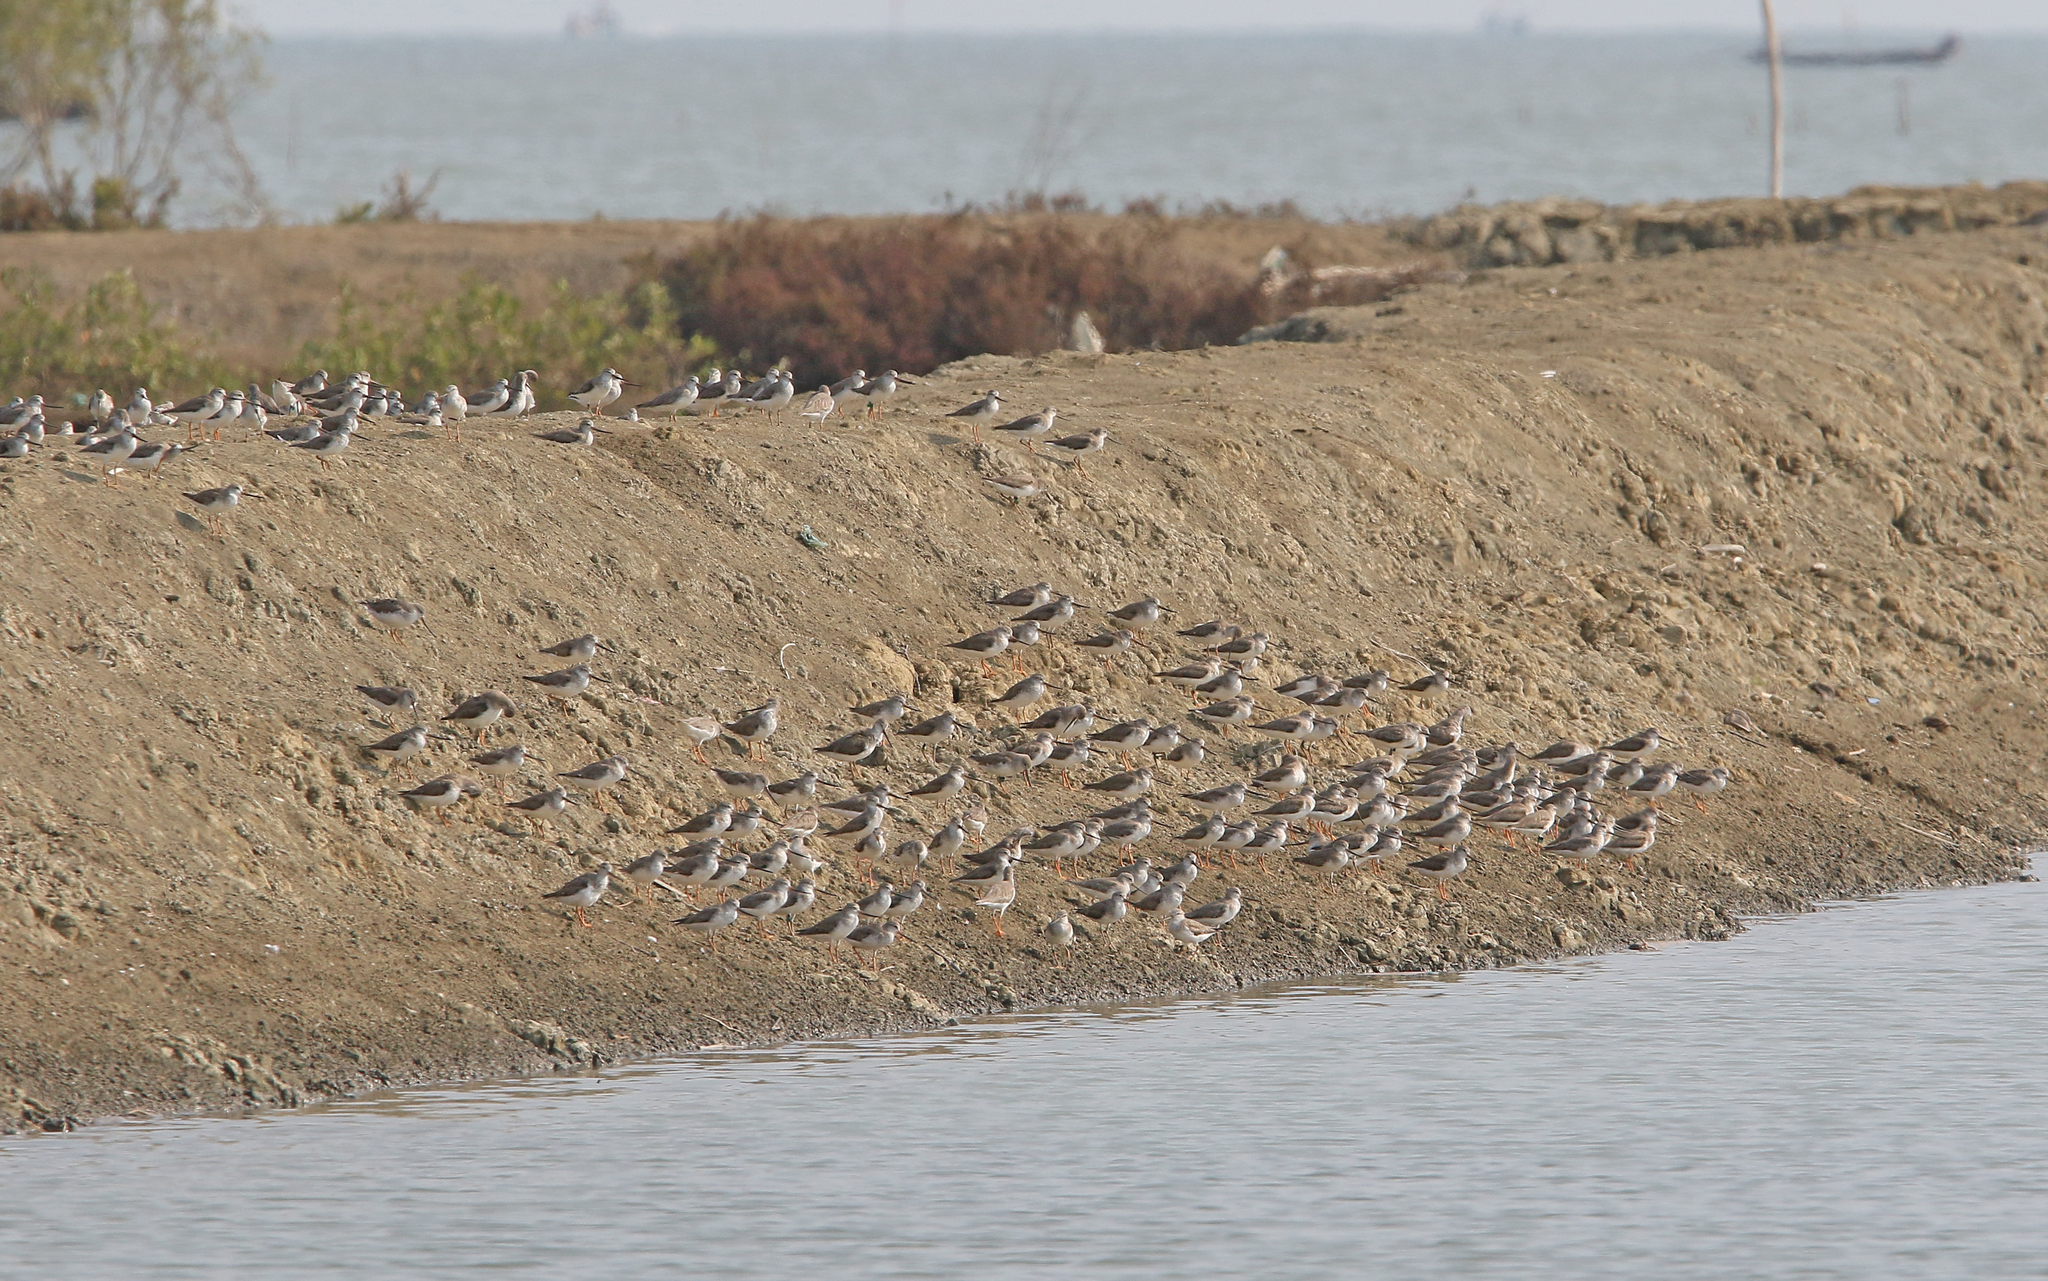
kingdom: Animalia
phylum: Chordata
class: Aves
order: Charadriiformes
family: Scolopacidae
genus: Xenus
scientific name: Xenus cinereus
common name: Terek sandpiper
